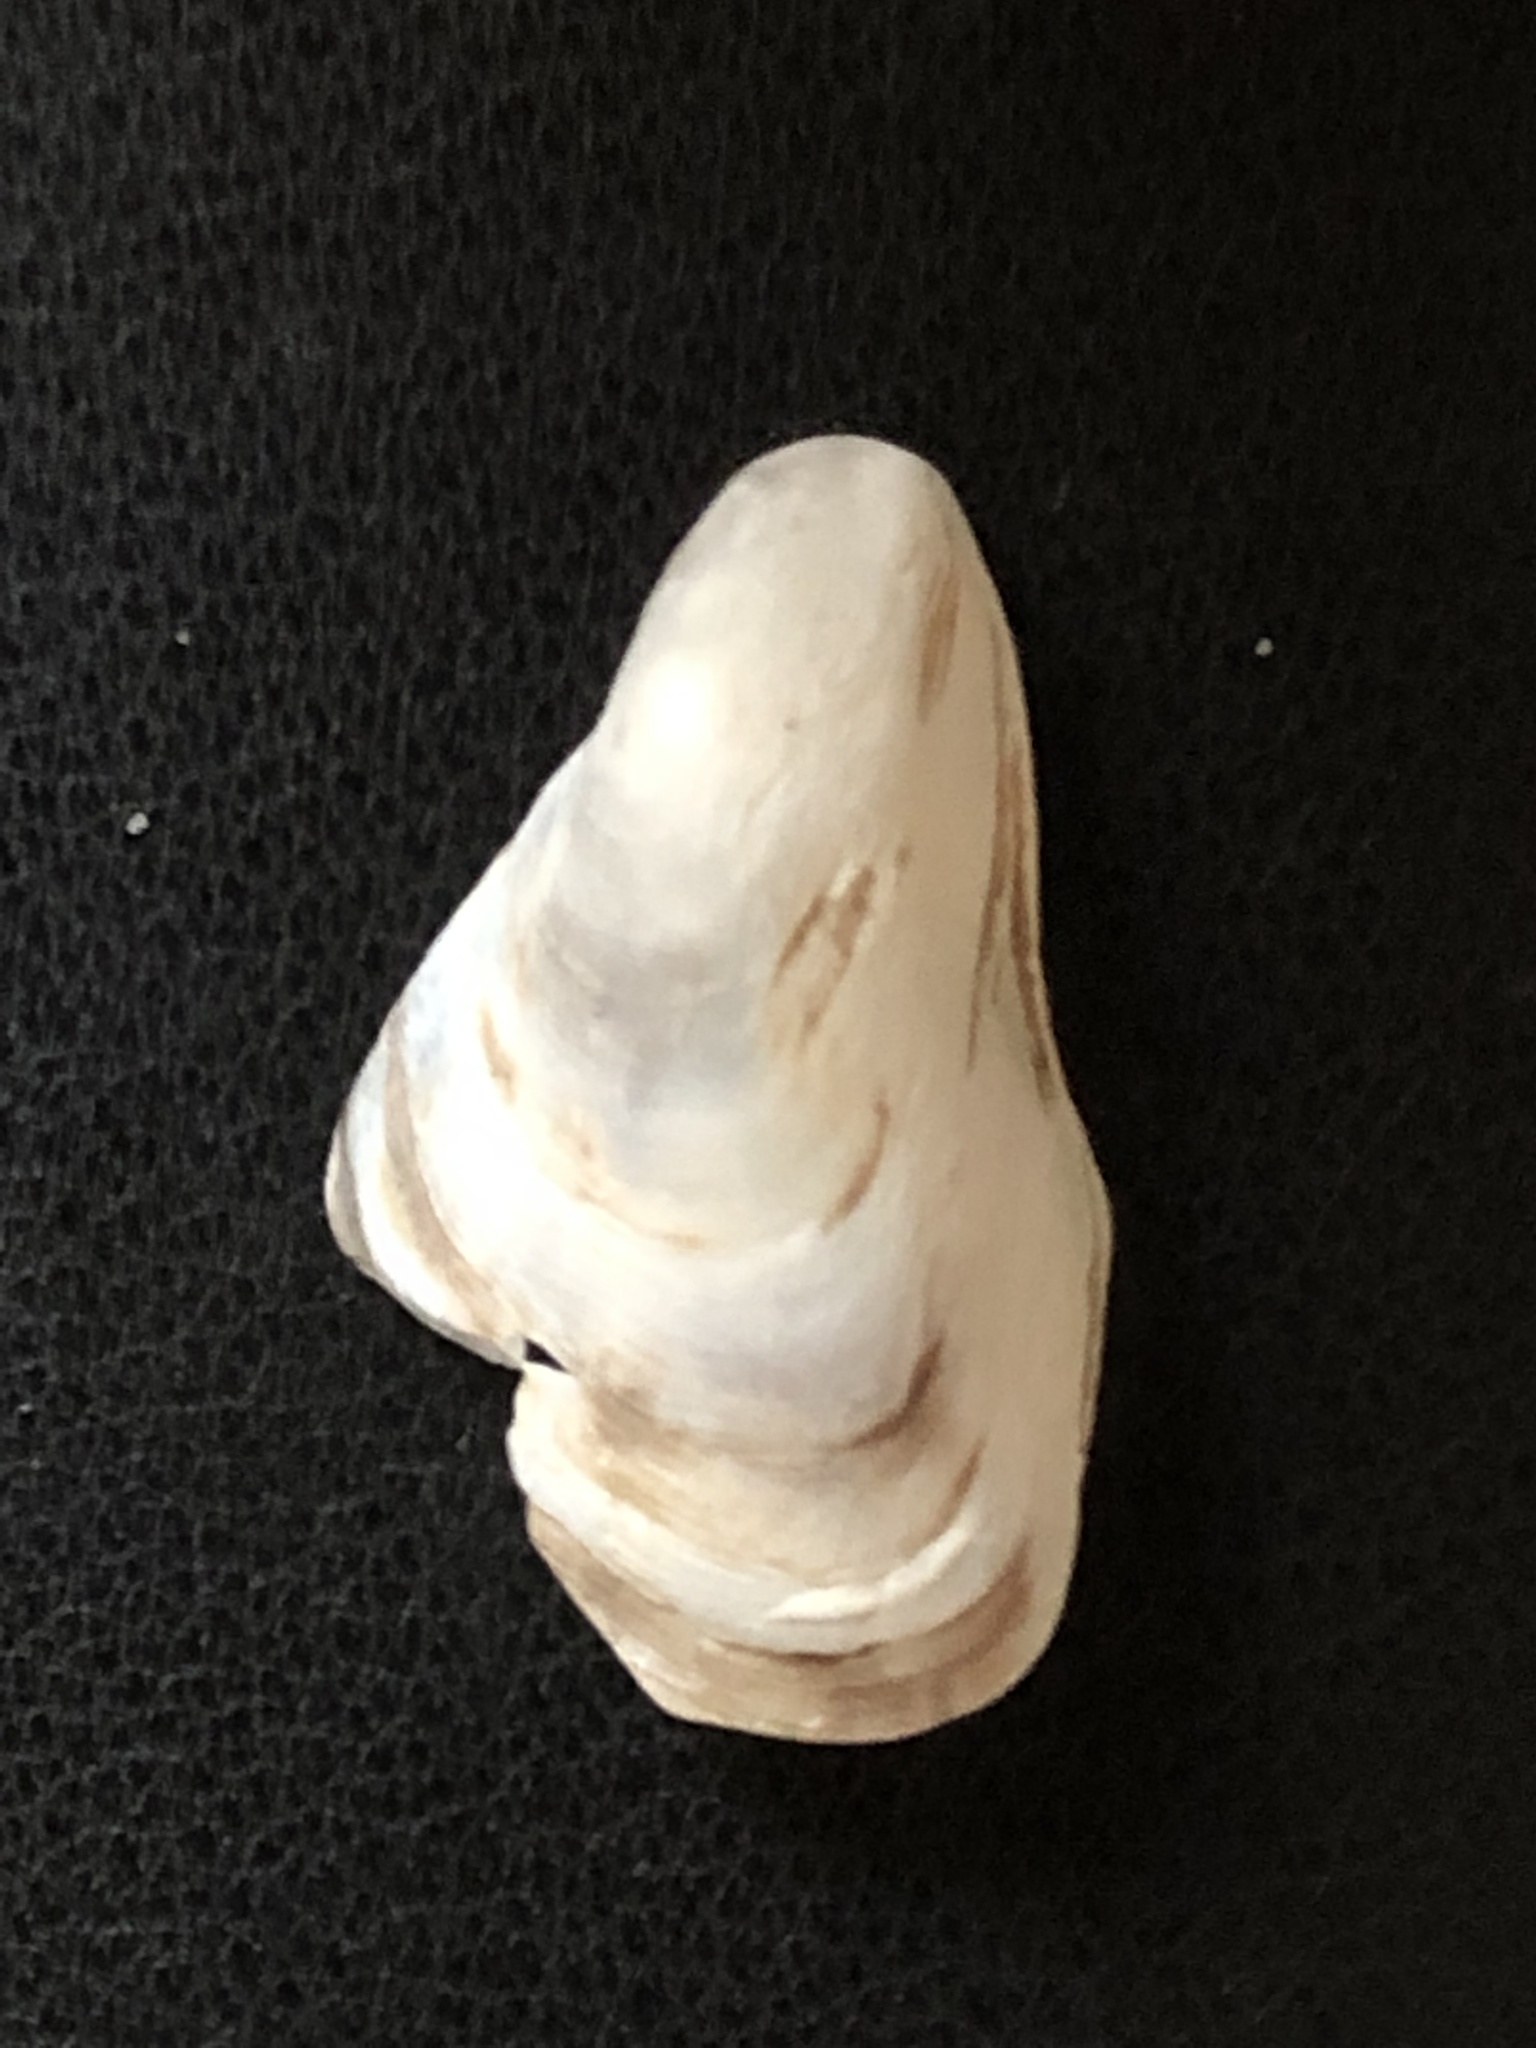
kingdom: Animalia
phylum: Mollusca
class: Bivalvia
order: Myida
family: Dreissenidae
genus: Dreissena
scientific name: Dreissena bugensis
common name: Quagga mussel
